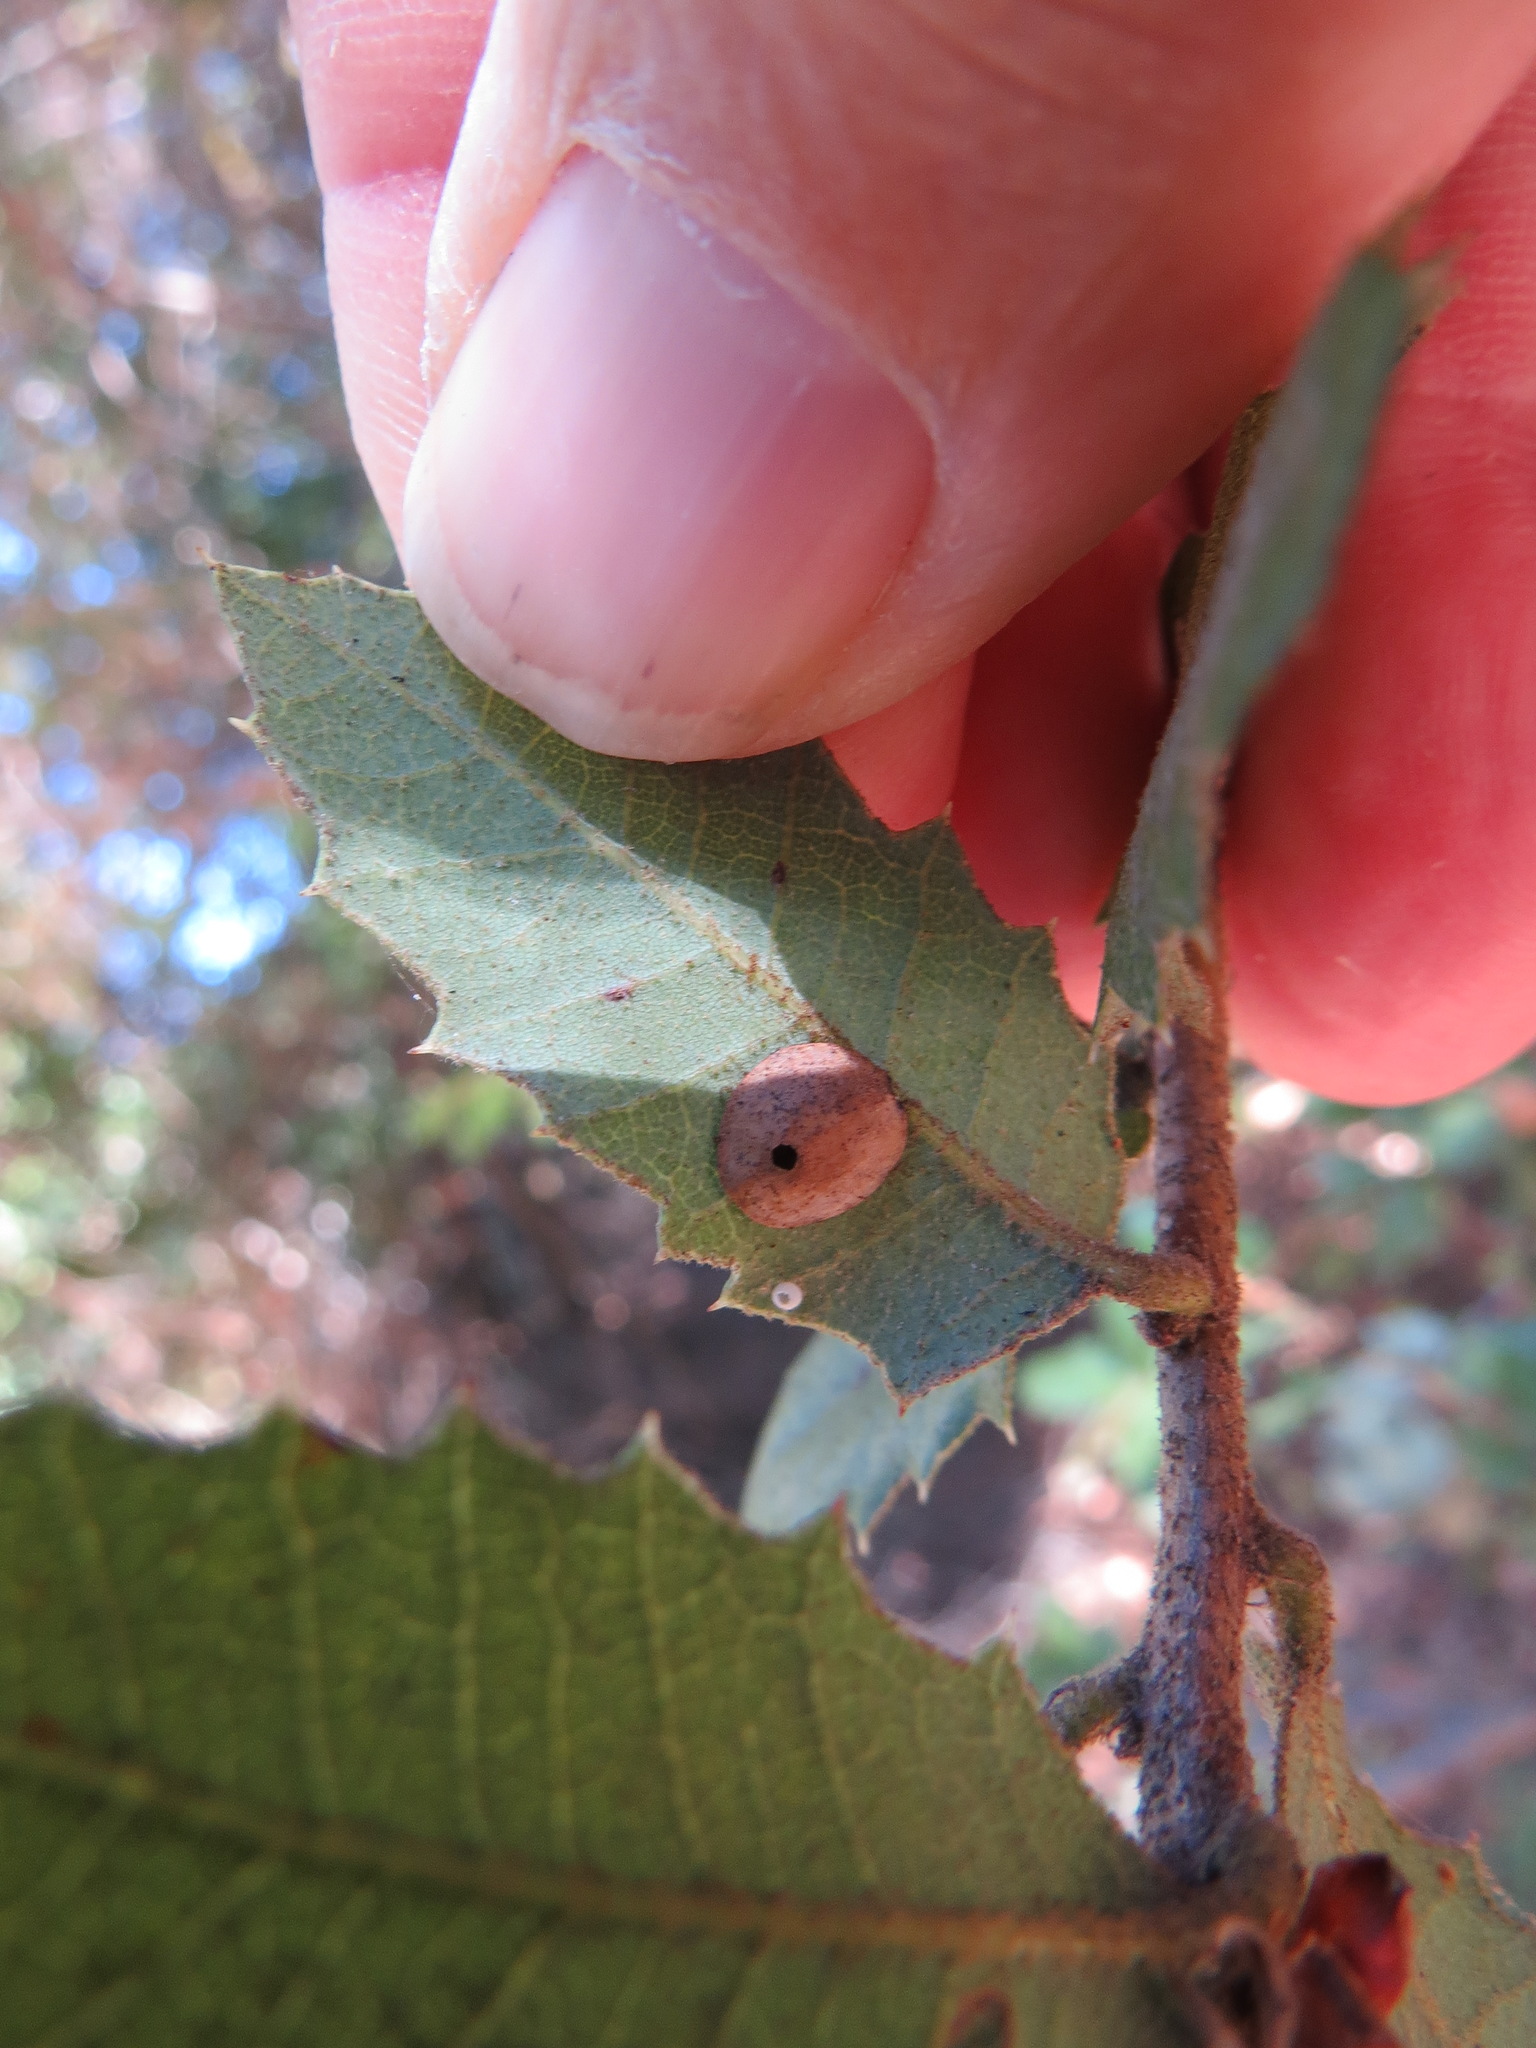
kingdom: Animalia
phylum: Arthropoda
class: Insecta
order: Hymenoptera
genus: Paracraspis
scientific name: Paracraspis
